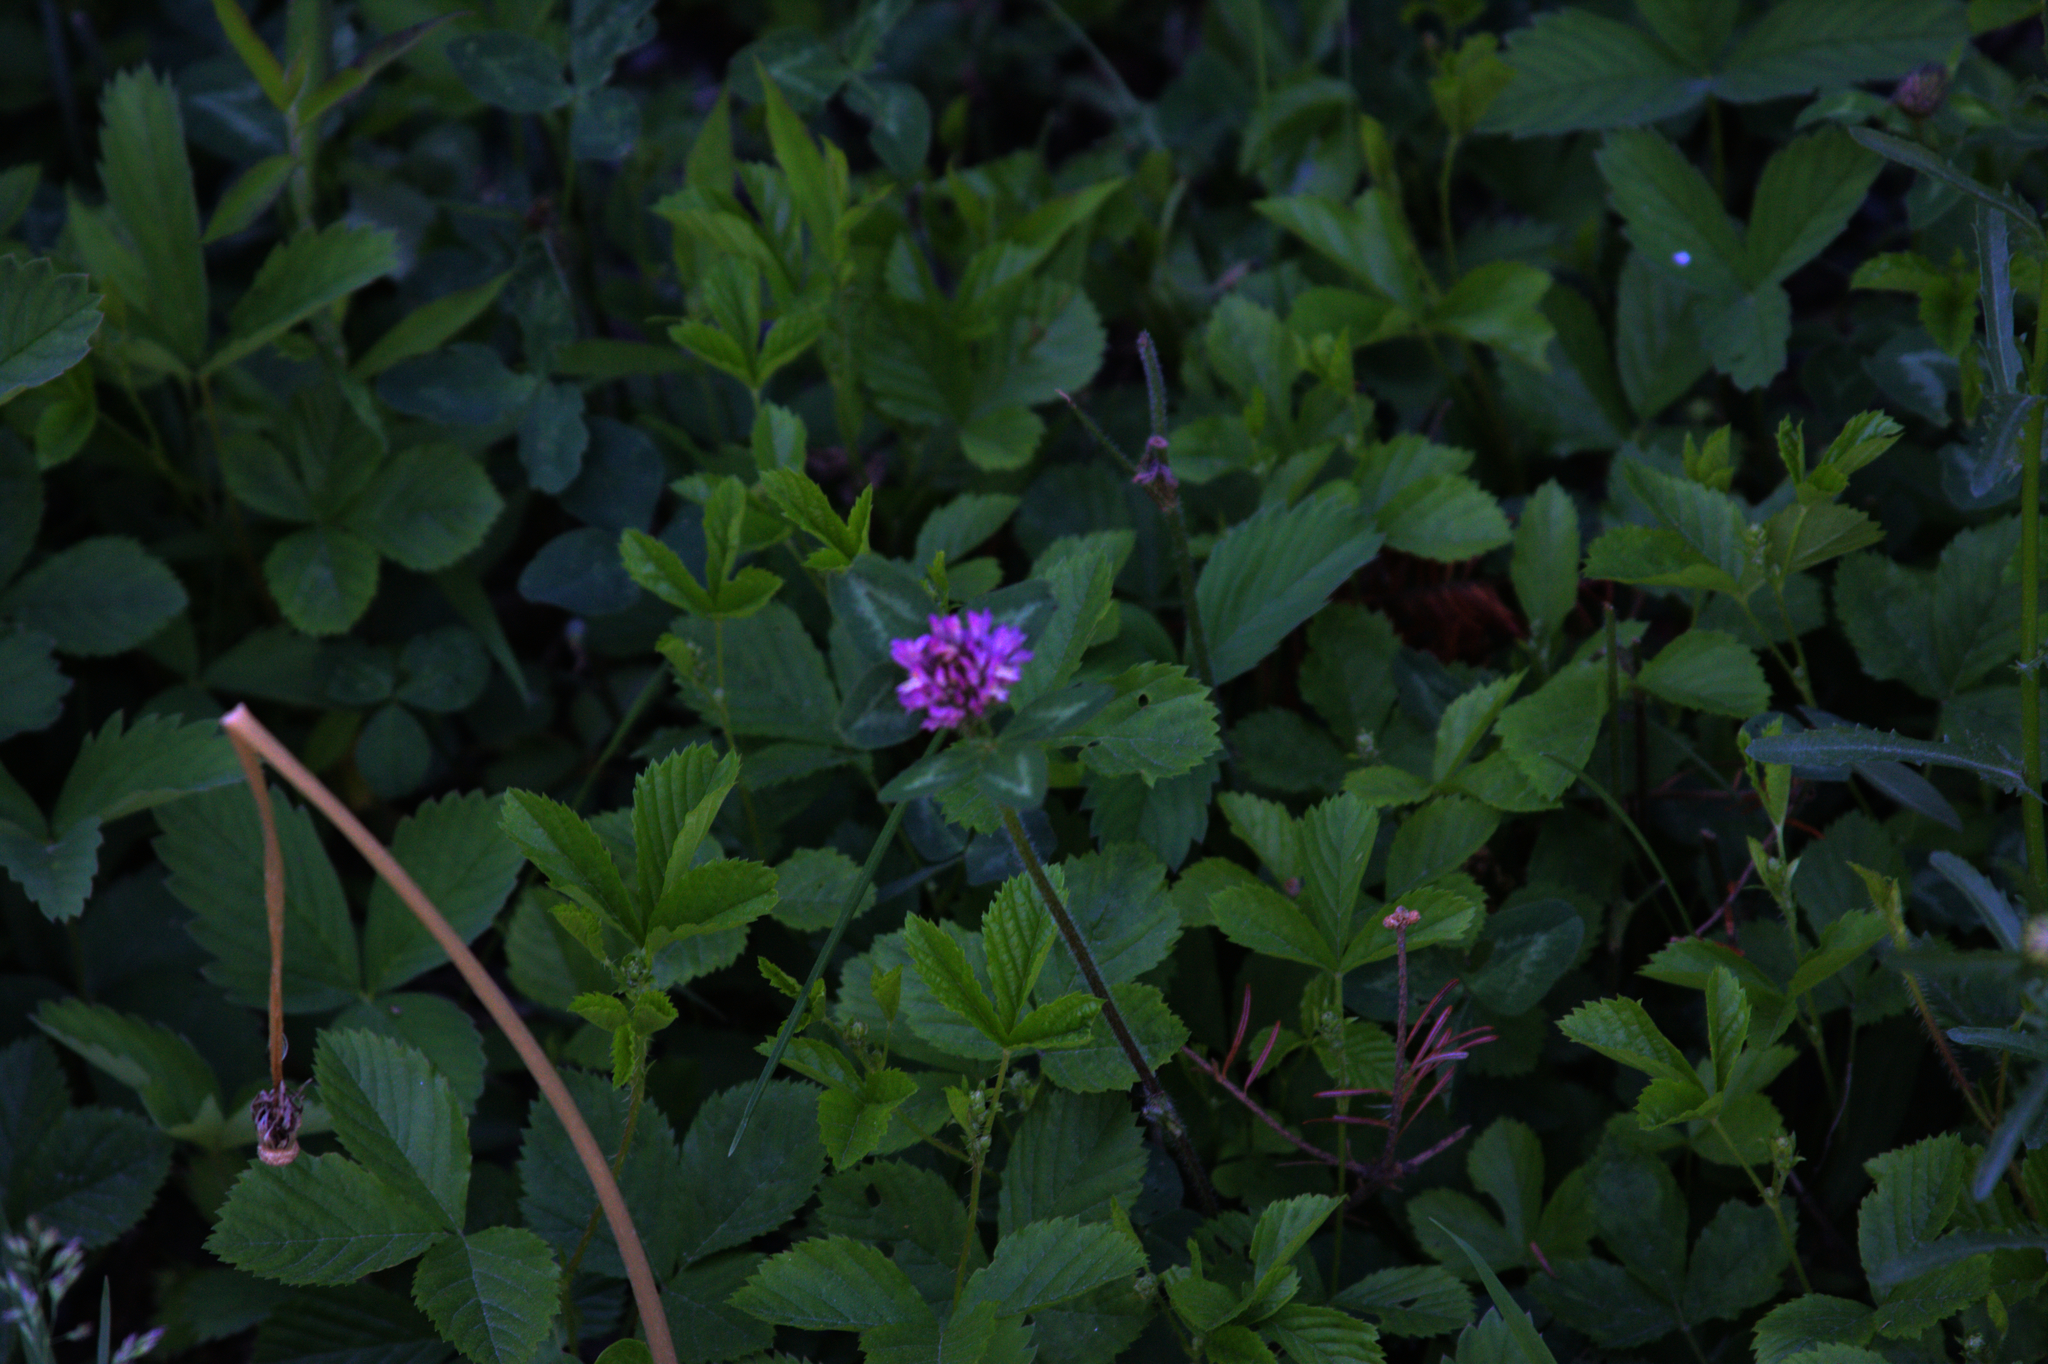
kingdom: Plantae
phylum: Tracheophyta
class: Magnoliopsida
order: Fabales
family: Fabaceae
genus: Trifolium
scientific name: Trifolium pratense
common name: Red clover
